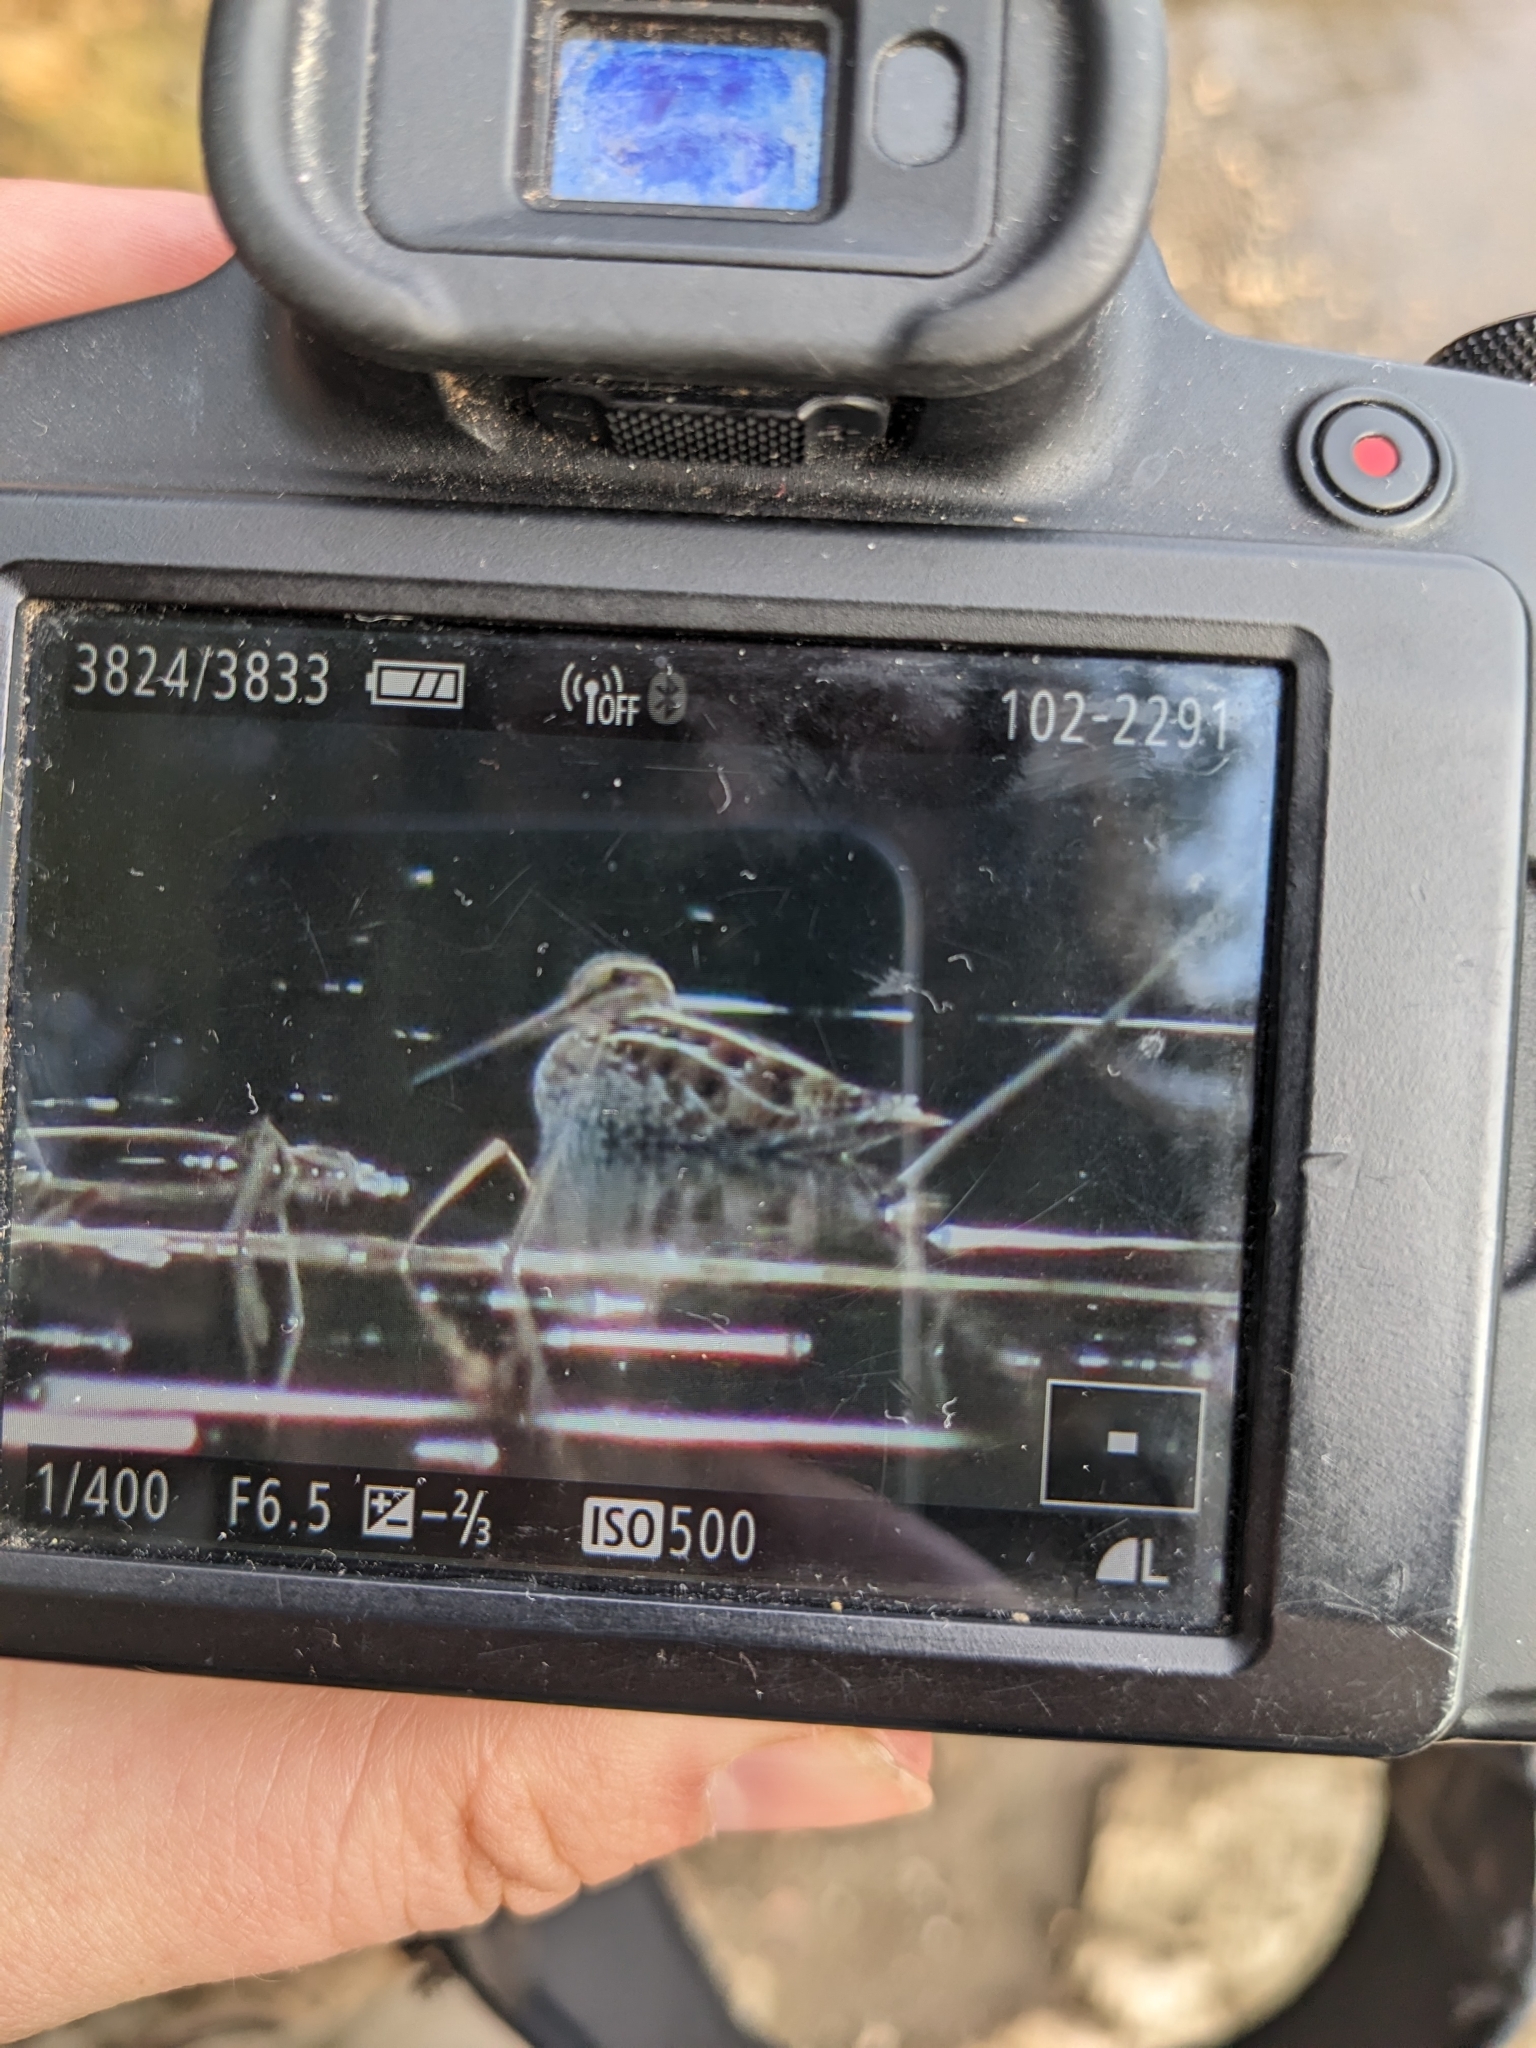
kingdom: Animalia
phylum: Chordata
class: Aves
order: Charadriiformes
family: Scolopacidae
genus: Gallinago
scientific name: Gallinago delicata
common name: Wilson's snipe
